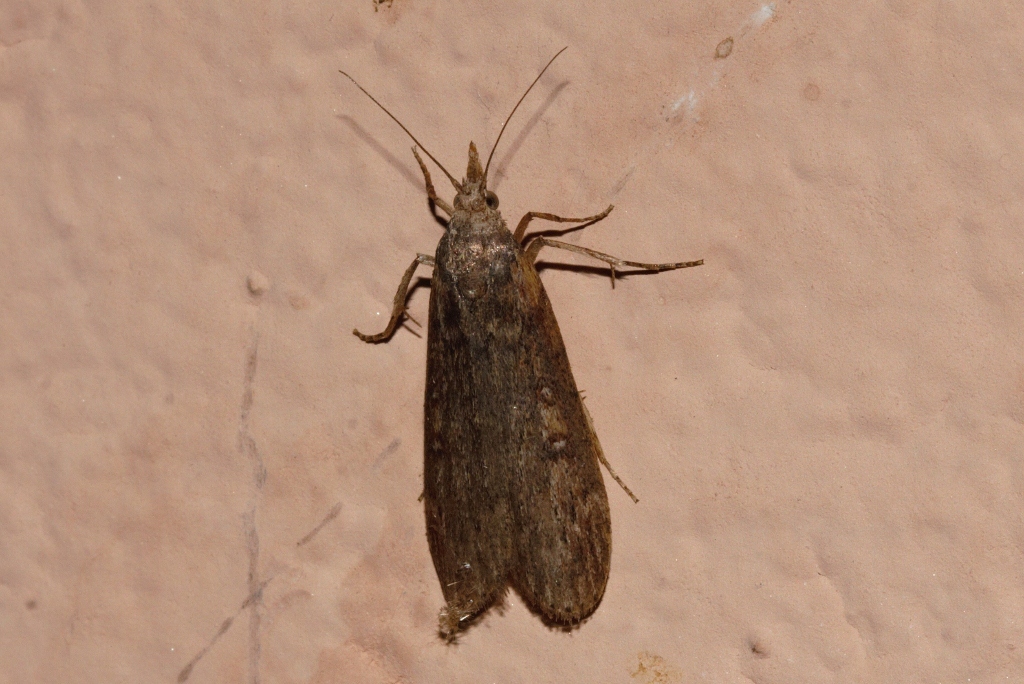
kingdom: Animalia
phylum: Arthropoda
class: Insecta
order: Lepidoptera
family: Pyralidae
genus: Lamoria
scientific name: Lamoria imbella
